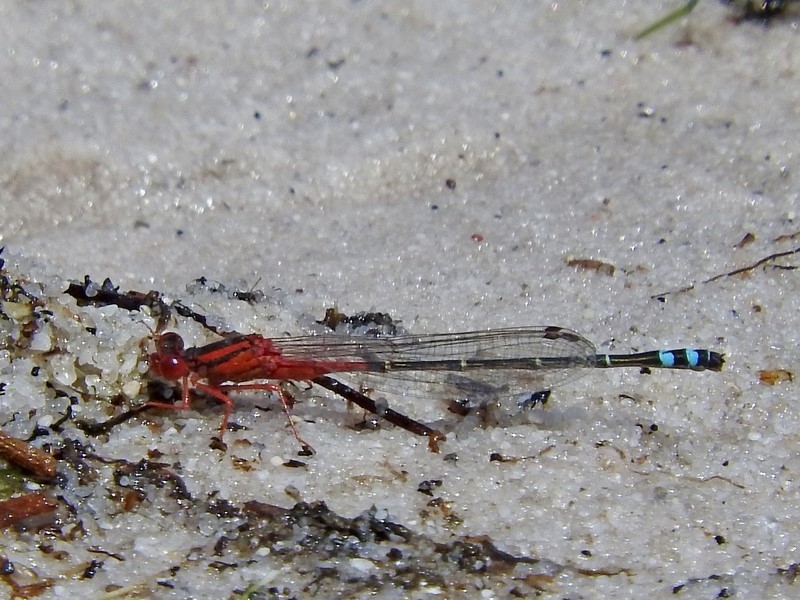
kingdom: Animalia
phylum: Arthropoda
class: Insecta
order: Odonata
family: Coenagrionidae
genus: Xanthagrion
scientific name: Xanthagrion erythroneurum
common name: Red and blue damsel
